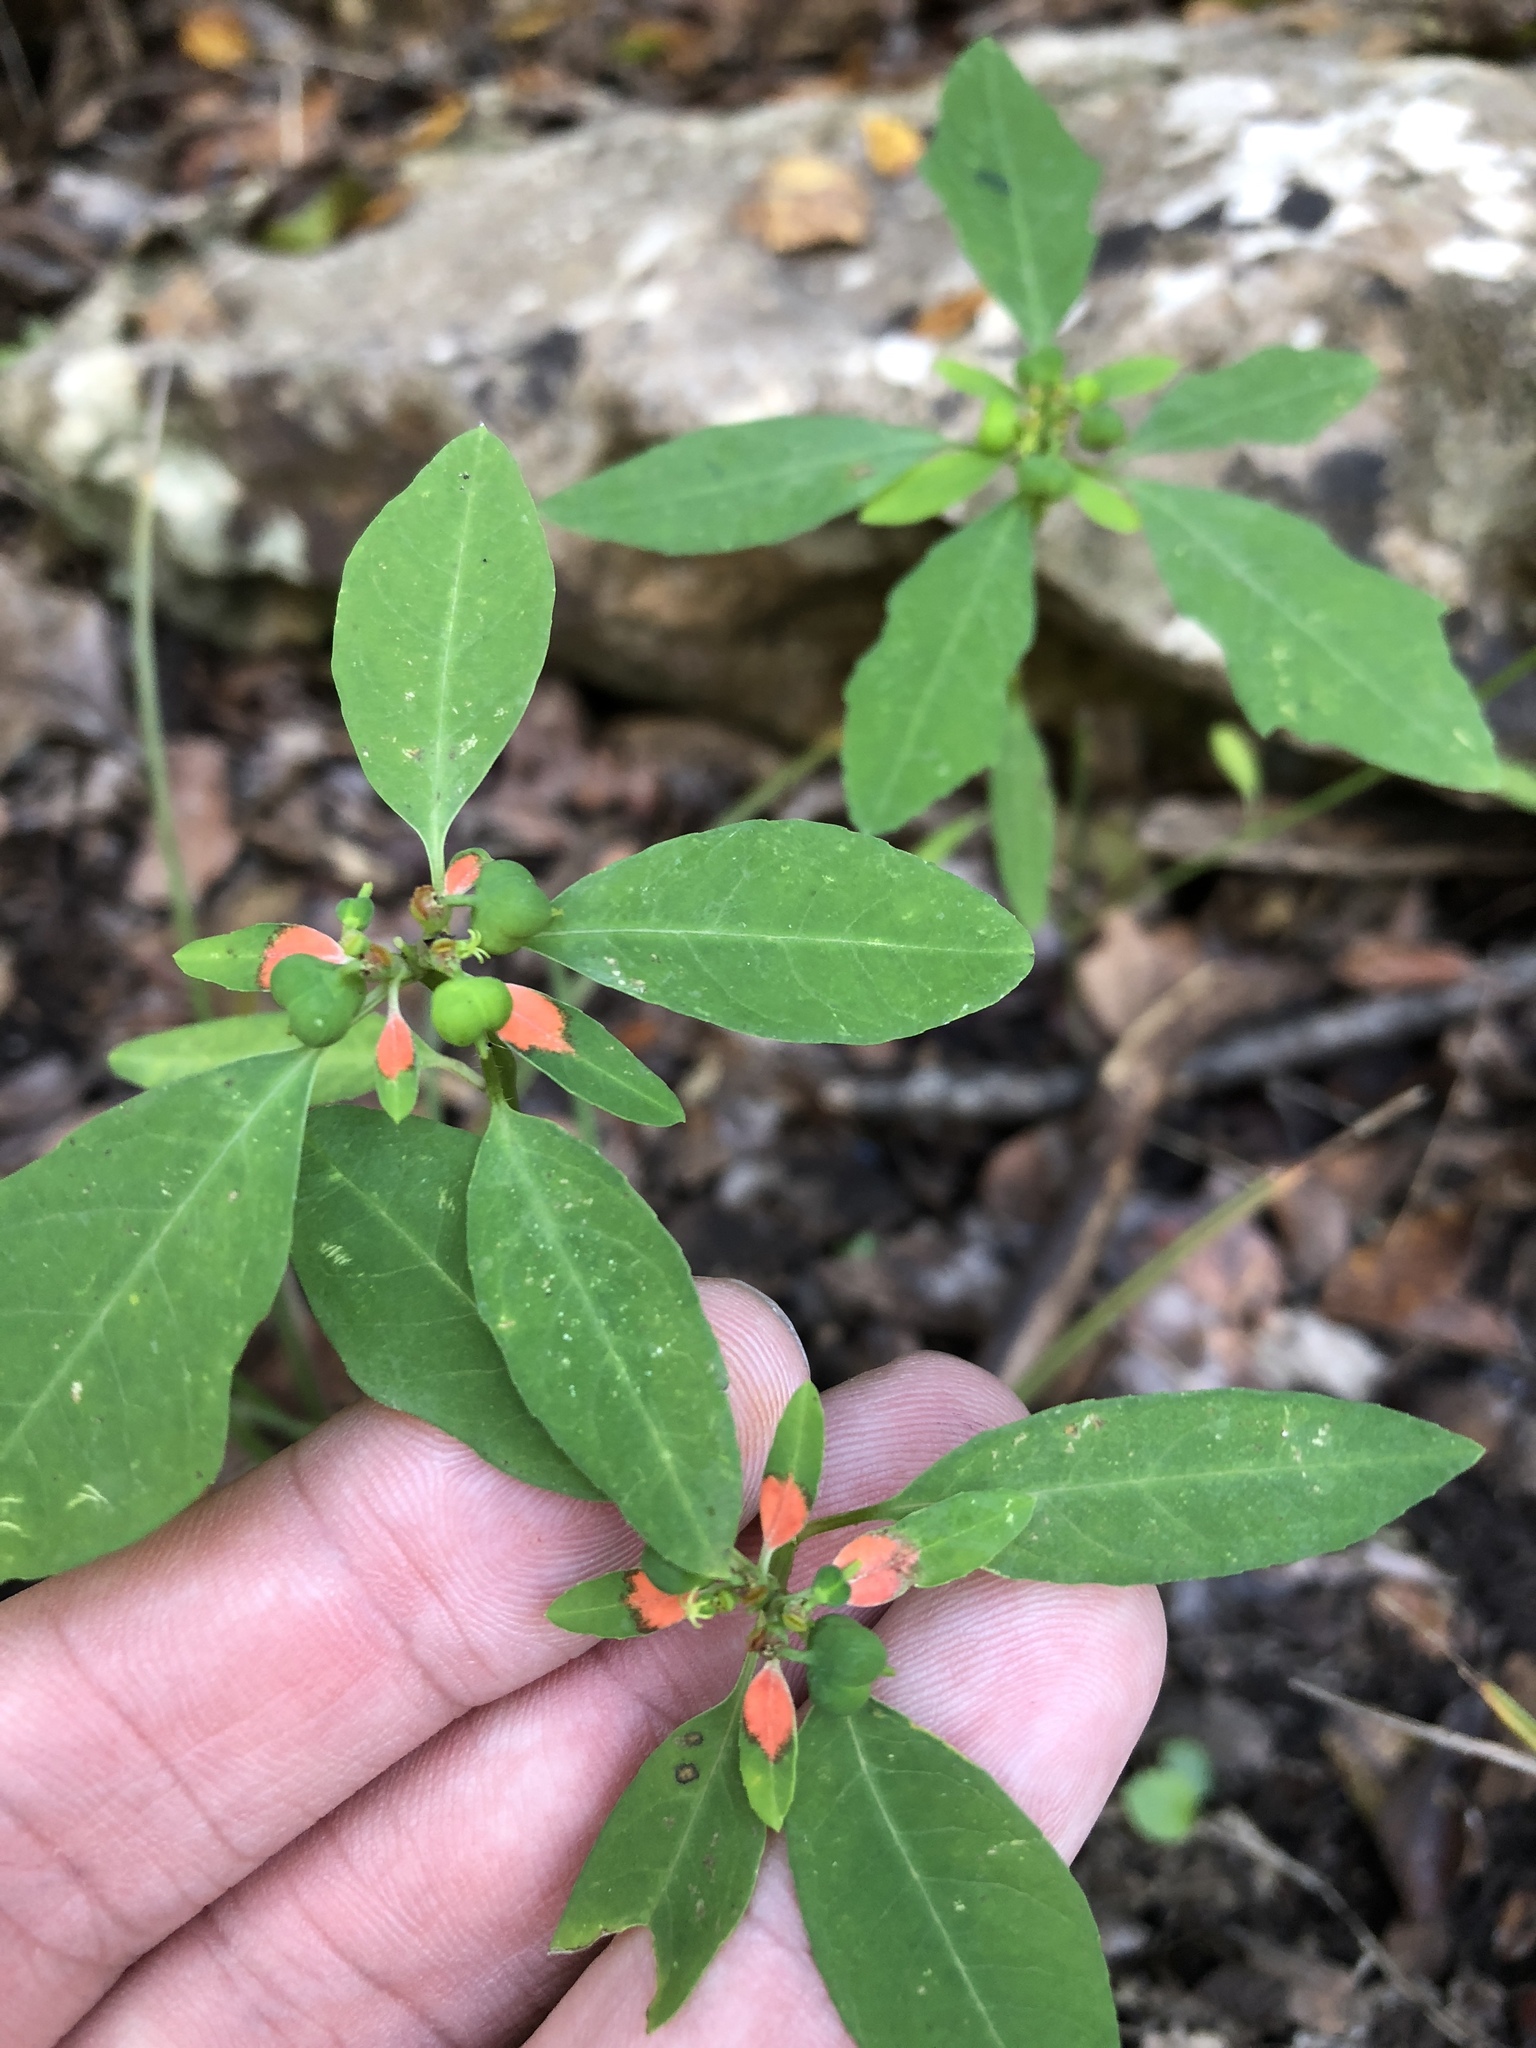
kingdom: Plantae
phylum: Tracheophyta
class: Magnoliopsida
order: Malpighiales
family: Euphorbiaceae
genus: Euphorbia
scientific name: Euphorbia heterophylla
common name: Mexican fireplant
